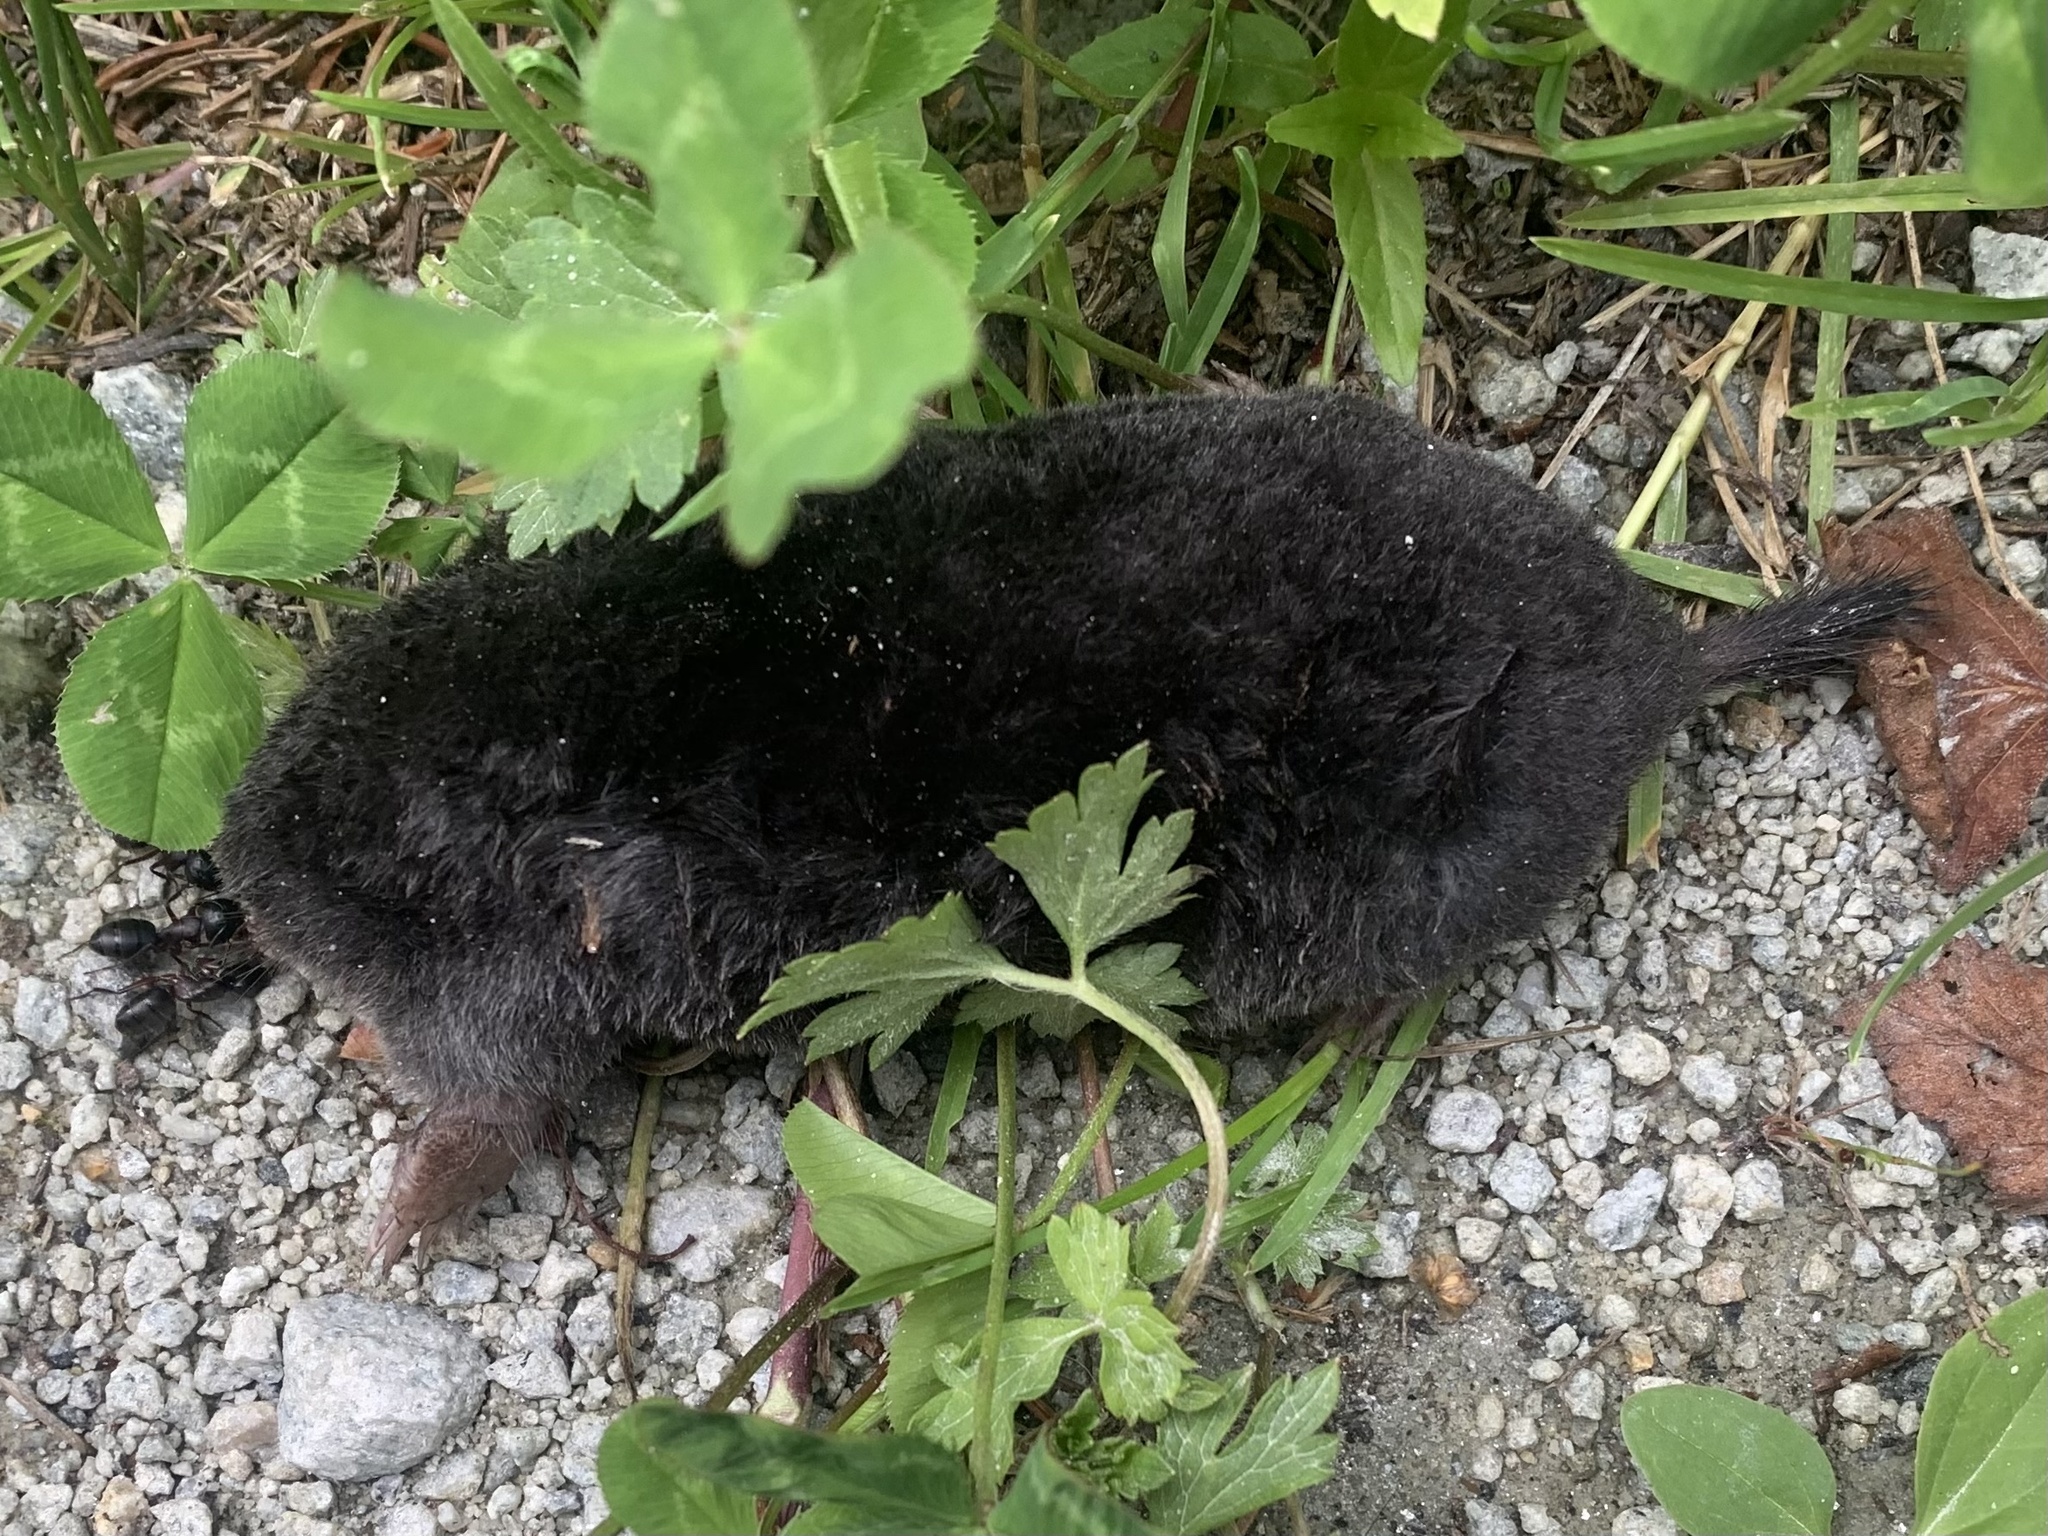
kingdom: Animalia
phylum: Chordata
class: Mammalia
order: Soricomorpha
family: Talpidae
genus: Talpa
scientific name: Talpa europaea
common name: European mole
